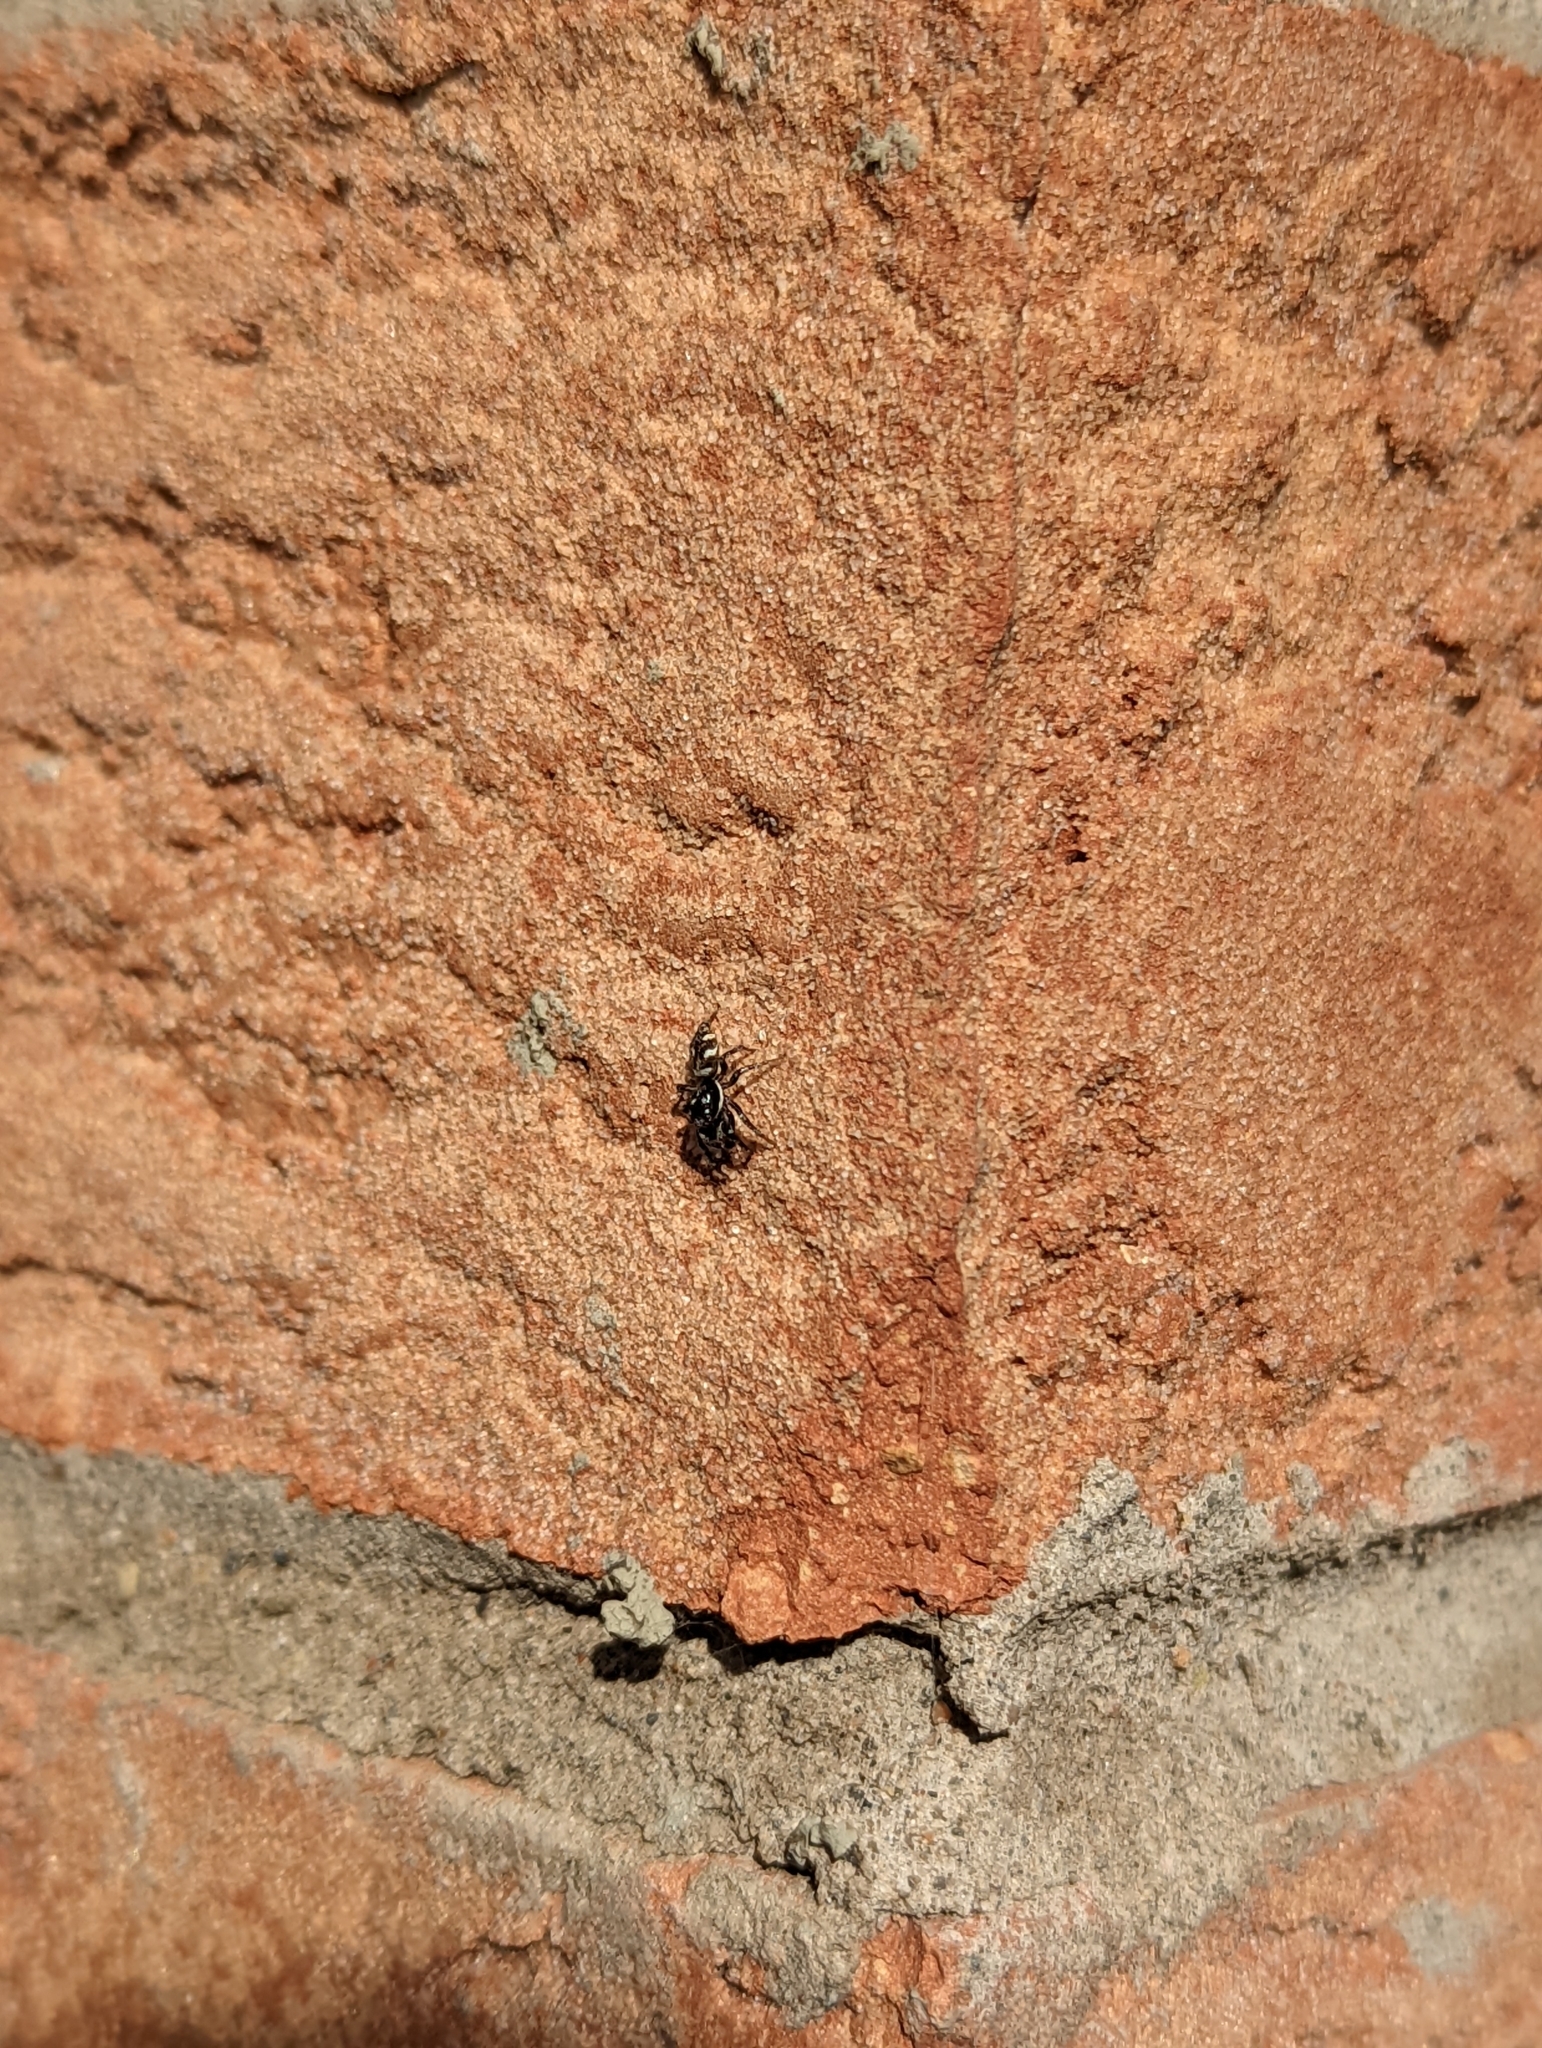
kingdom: Animalia
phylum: Arthropoda
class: Arachnida
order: Araneae
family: Salticidae
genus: Salticus
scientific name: Salticus scenicus
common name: Zebra jumper
